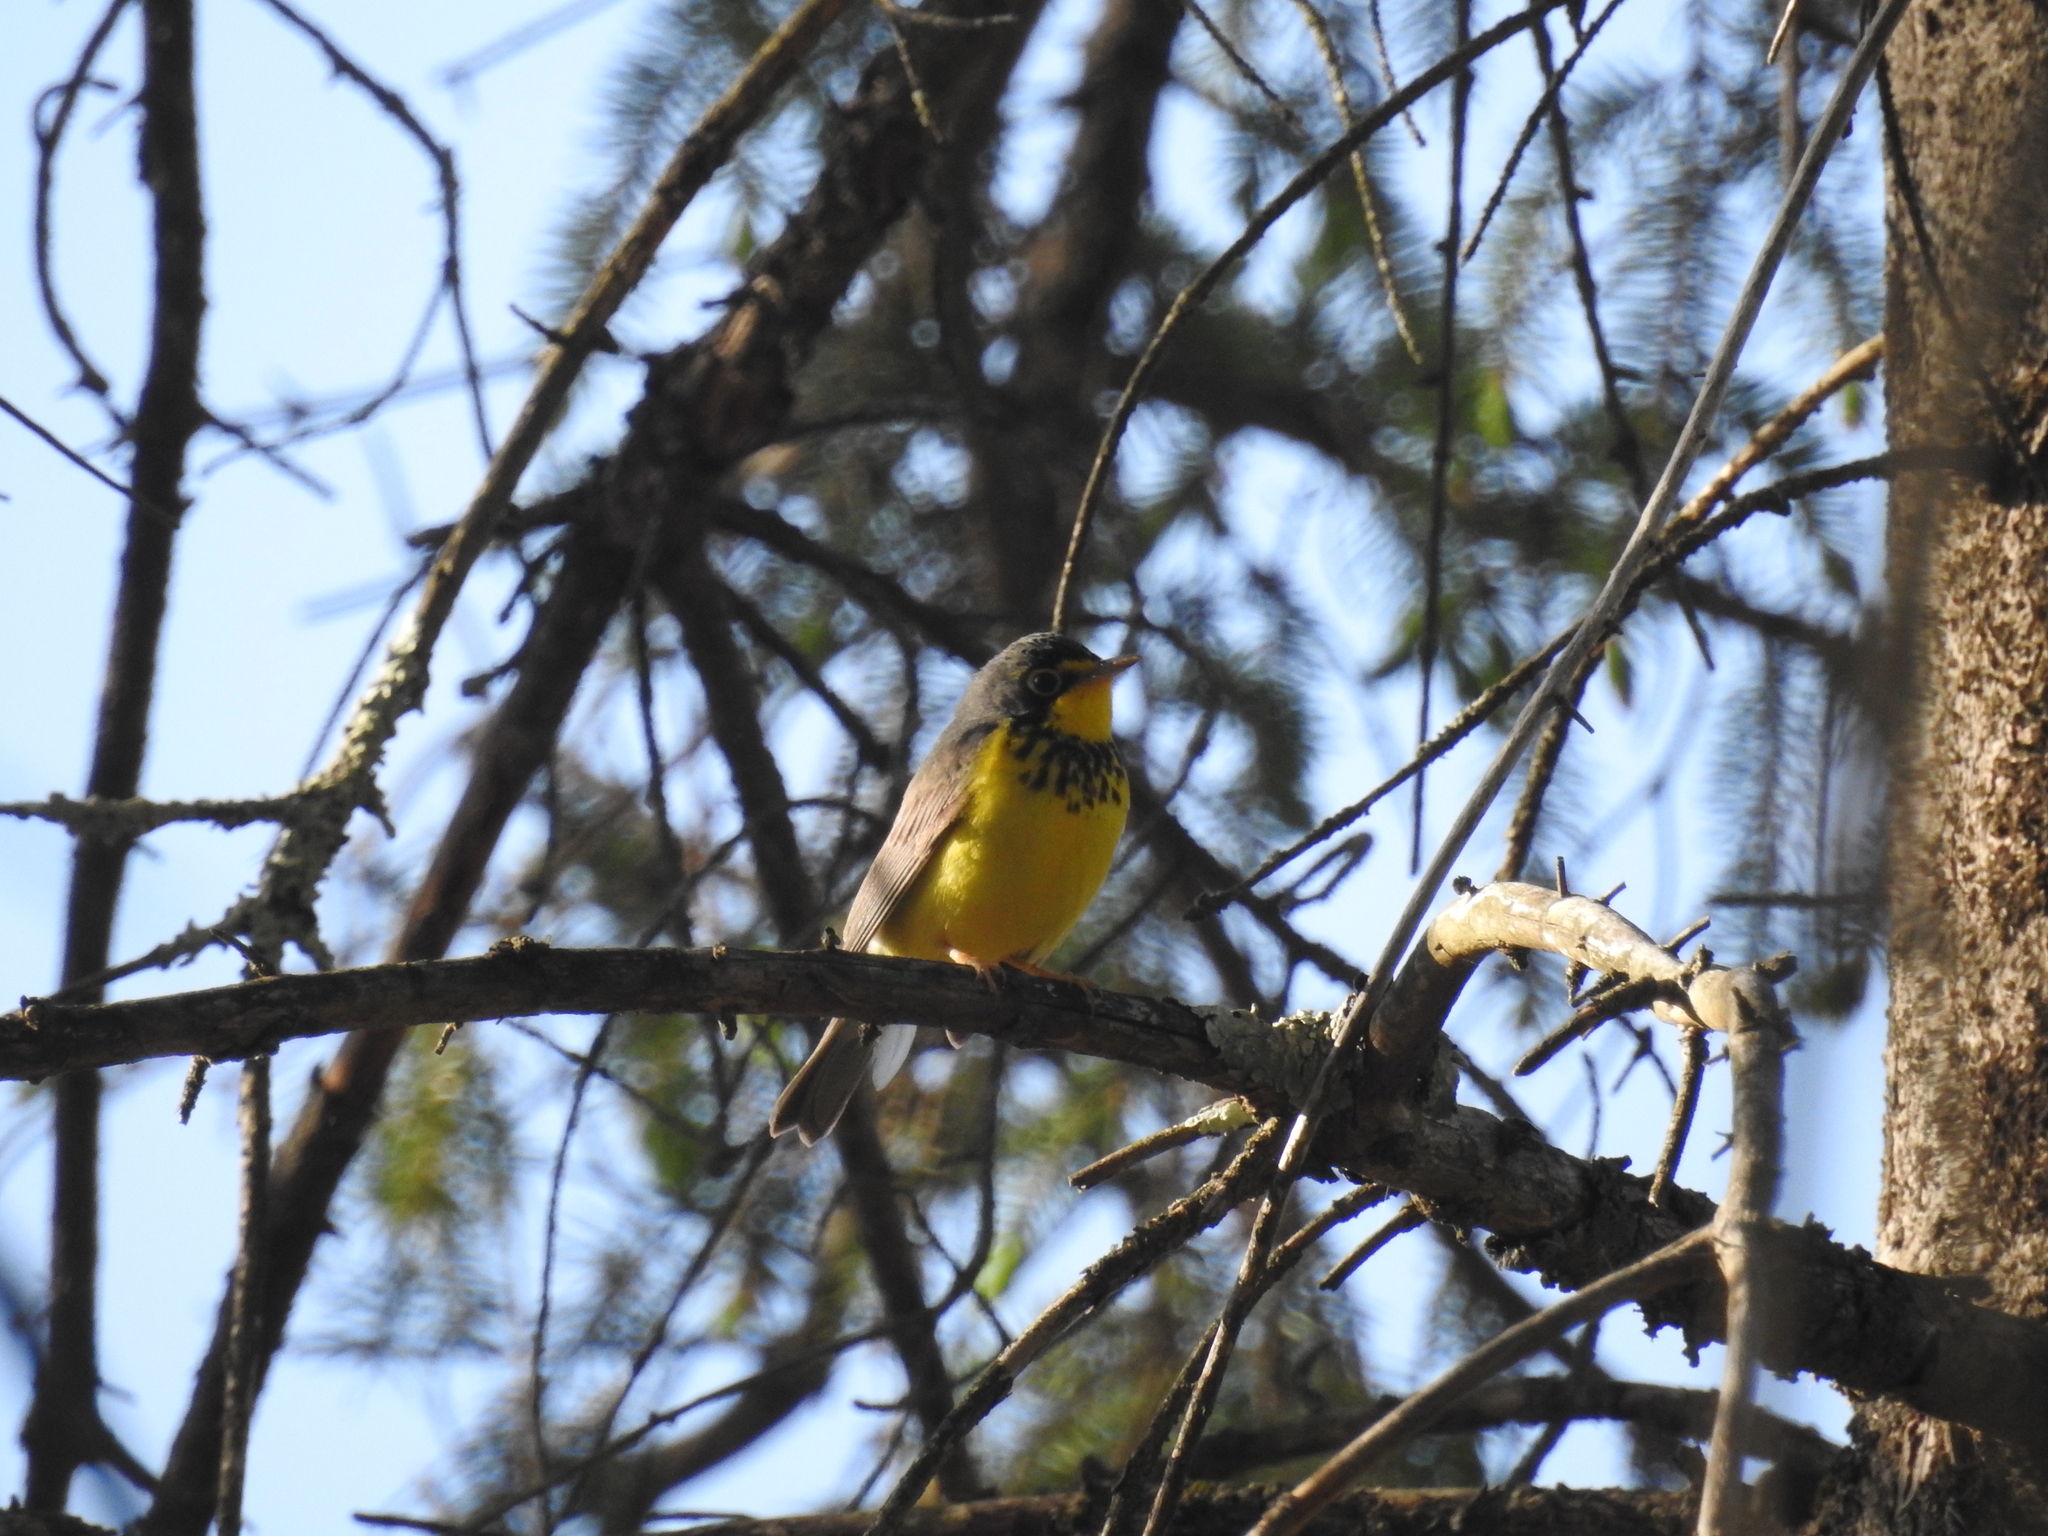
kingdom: Animalia
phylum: Chordata
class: Aves
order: Passeriformes
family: Parulidae
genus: Cardellina
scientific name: Cardellina canadensis
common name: Canada warbler
